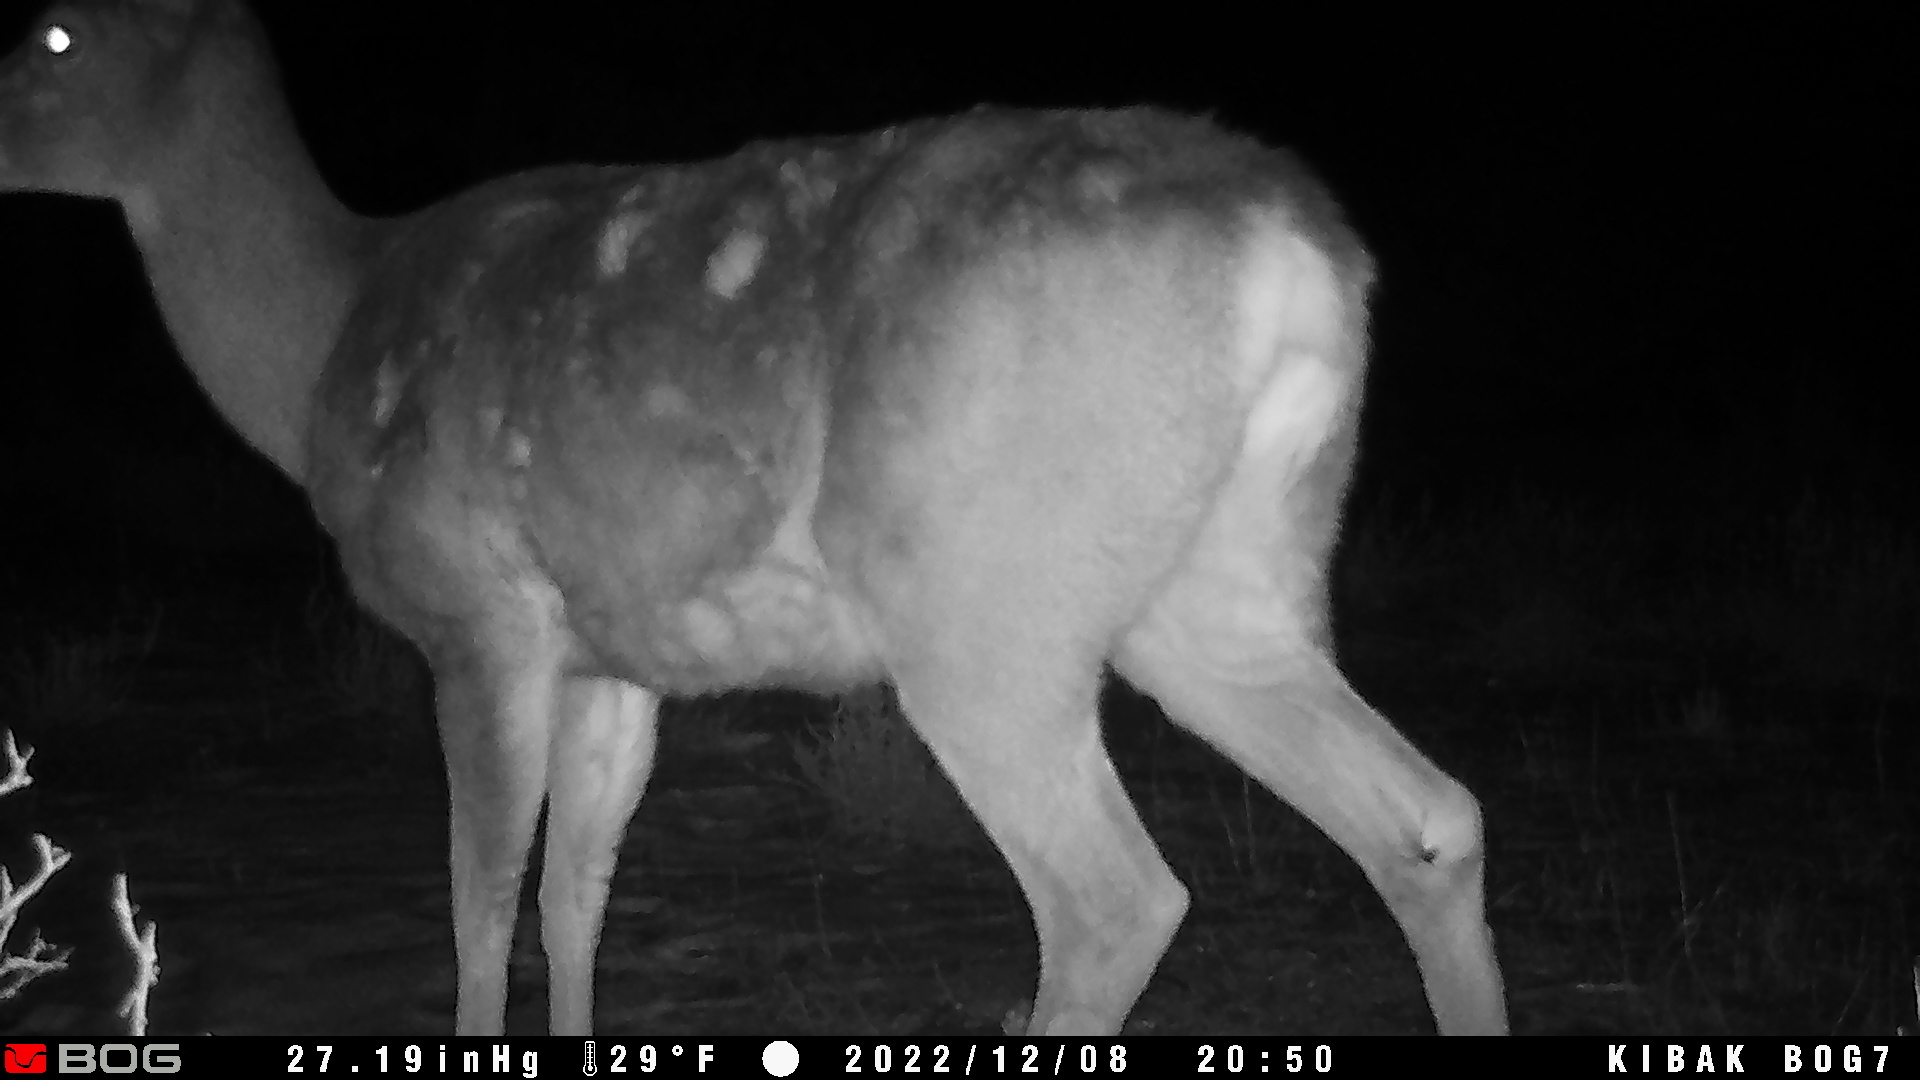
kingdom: Animalia
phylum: Chordata
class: Mammalia
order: Artiodactyla
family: Cervidae
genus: Odocoileus
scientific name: Odocoileus hemionus
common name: Mule deer
